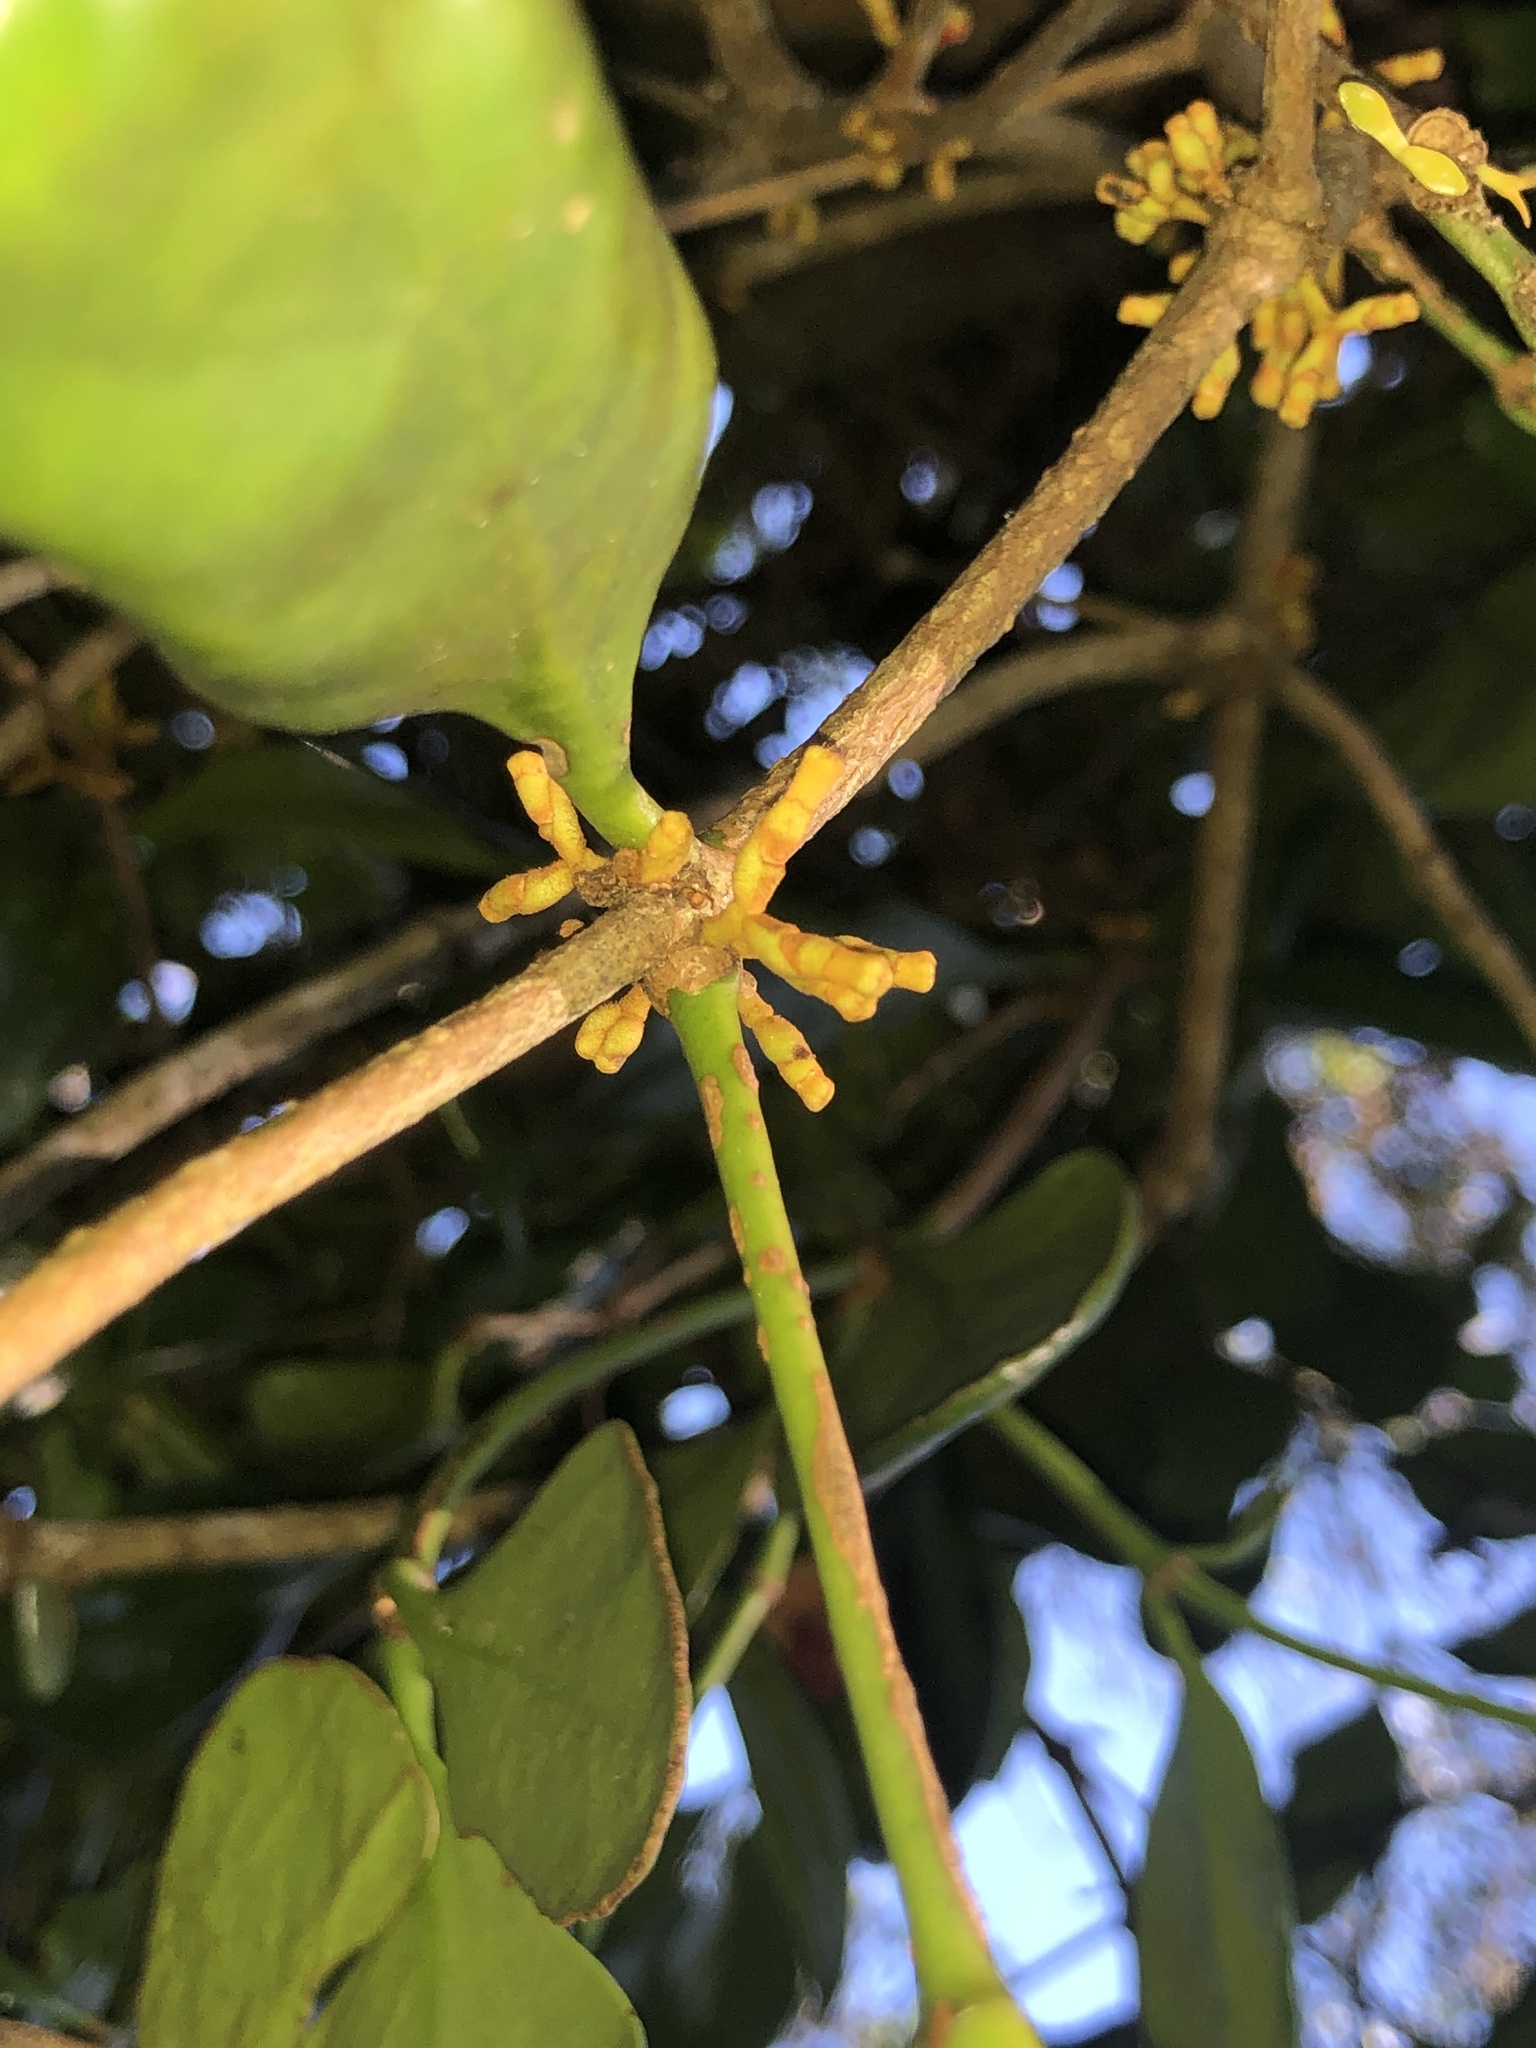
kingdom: Plantae
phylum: Tracheophyta
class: Magnoliopsida
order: Santalales
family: Loranthaceae
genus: Benthamina
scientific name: Benthamina alyxifolia
